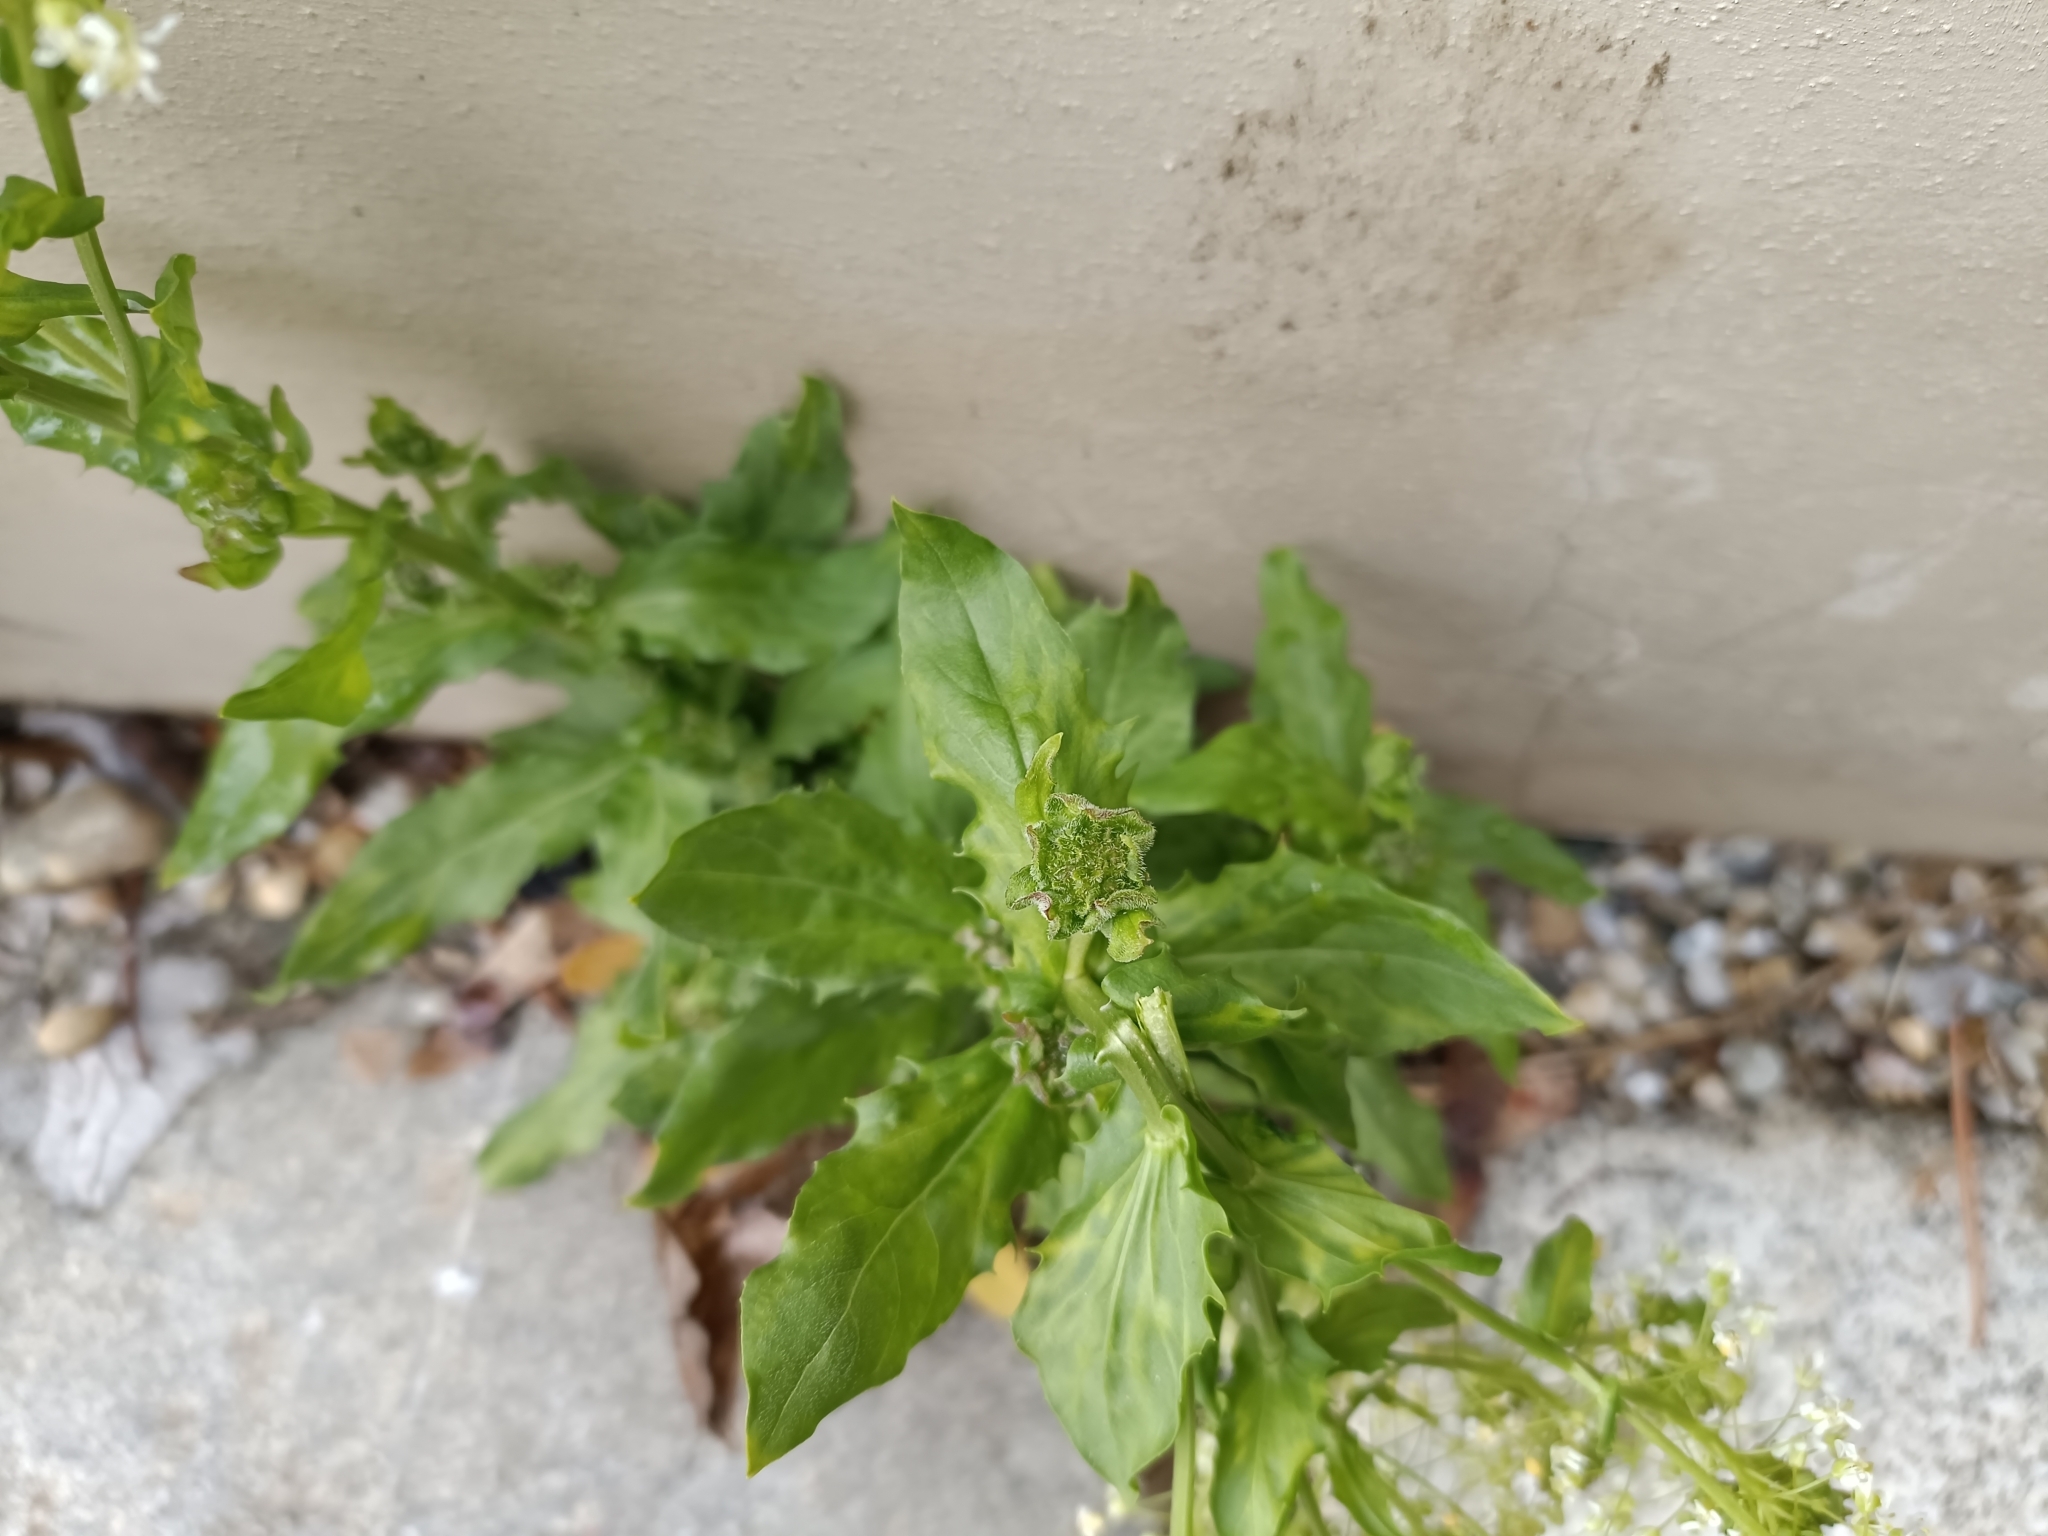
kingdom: Plantae
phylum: Tracheophyta
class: Magnoliopsida
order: Brassicales
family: Brassicaceae
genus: Lepidium
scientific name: Lepidium draba
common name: Hoary cress
